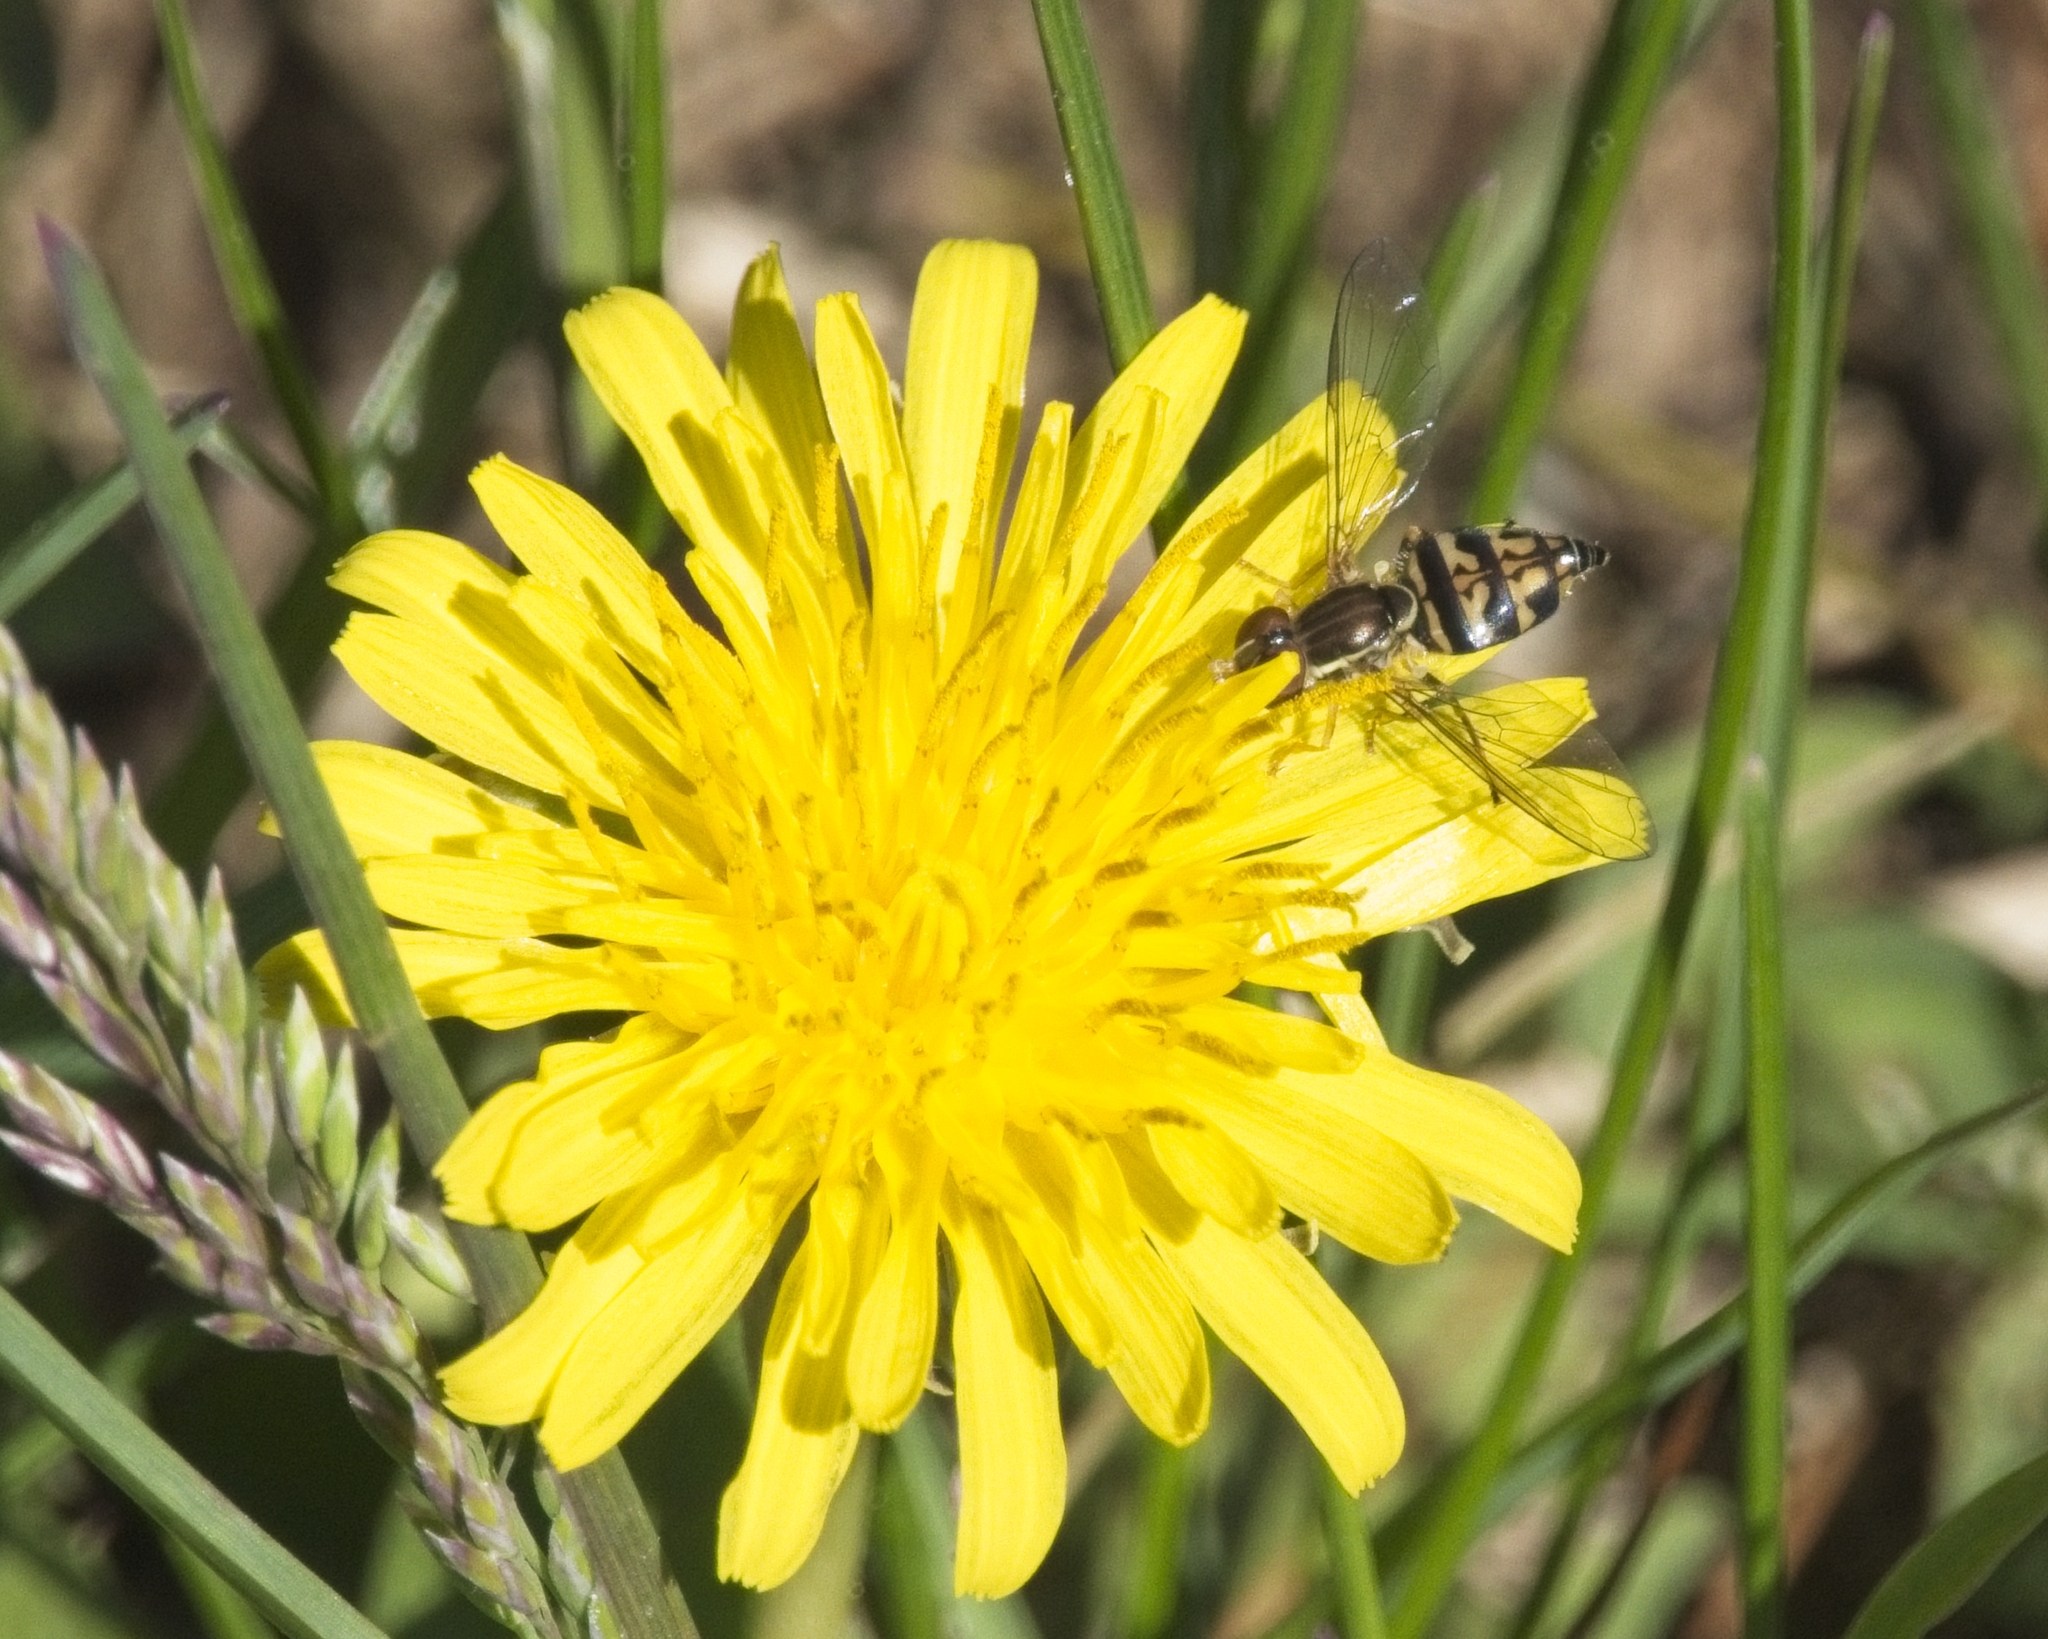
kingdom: Animalia
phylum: Arthropoda
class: Insecta
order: Diptera
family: Syrphidae
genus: Toxomerus
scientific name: Toxomerus geminatus
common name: Eastern calligrapher
